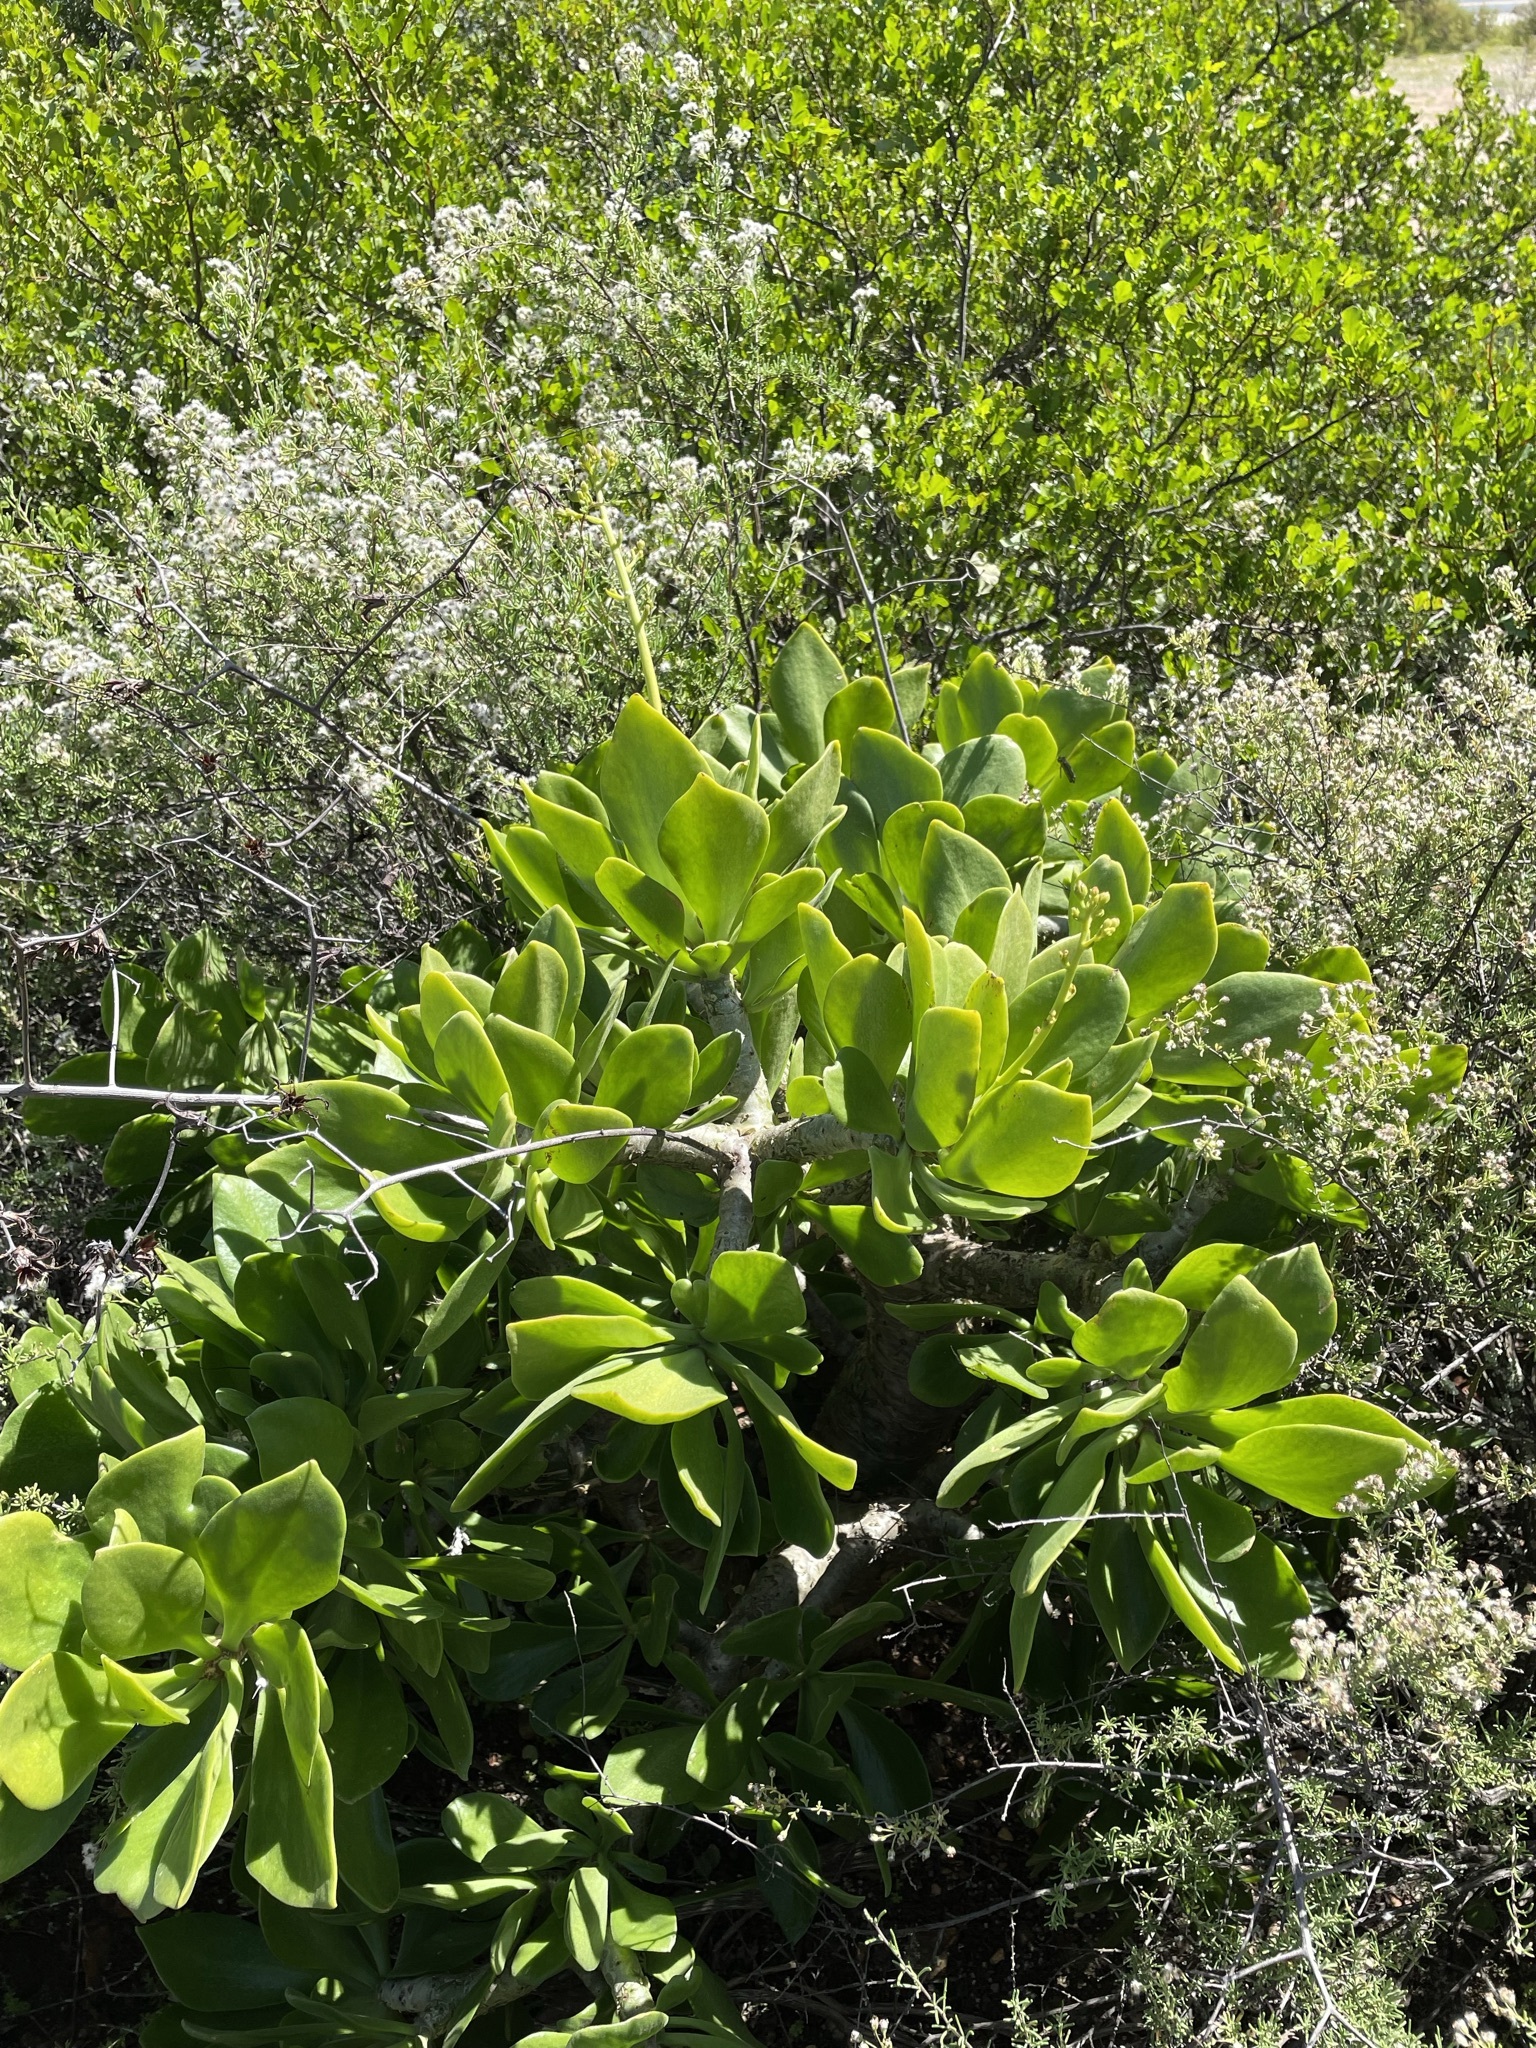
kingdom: Plantae
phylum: Tracheophyta
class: Magnoliopsida
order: Saxifragales
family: Crassulaceae
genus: Tylecodon
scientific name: Tylecodon paniculatus
